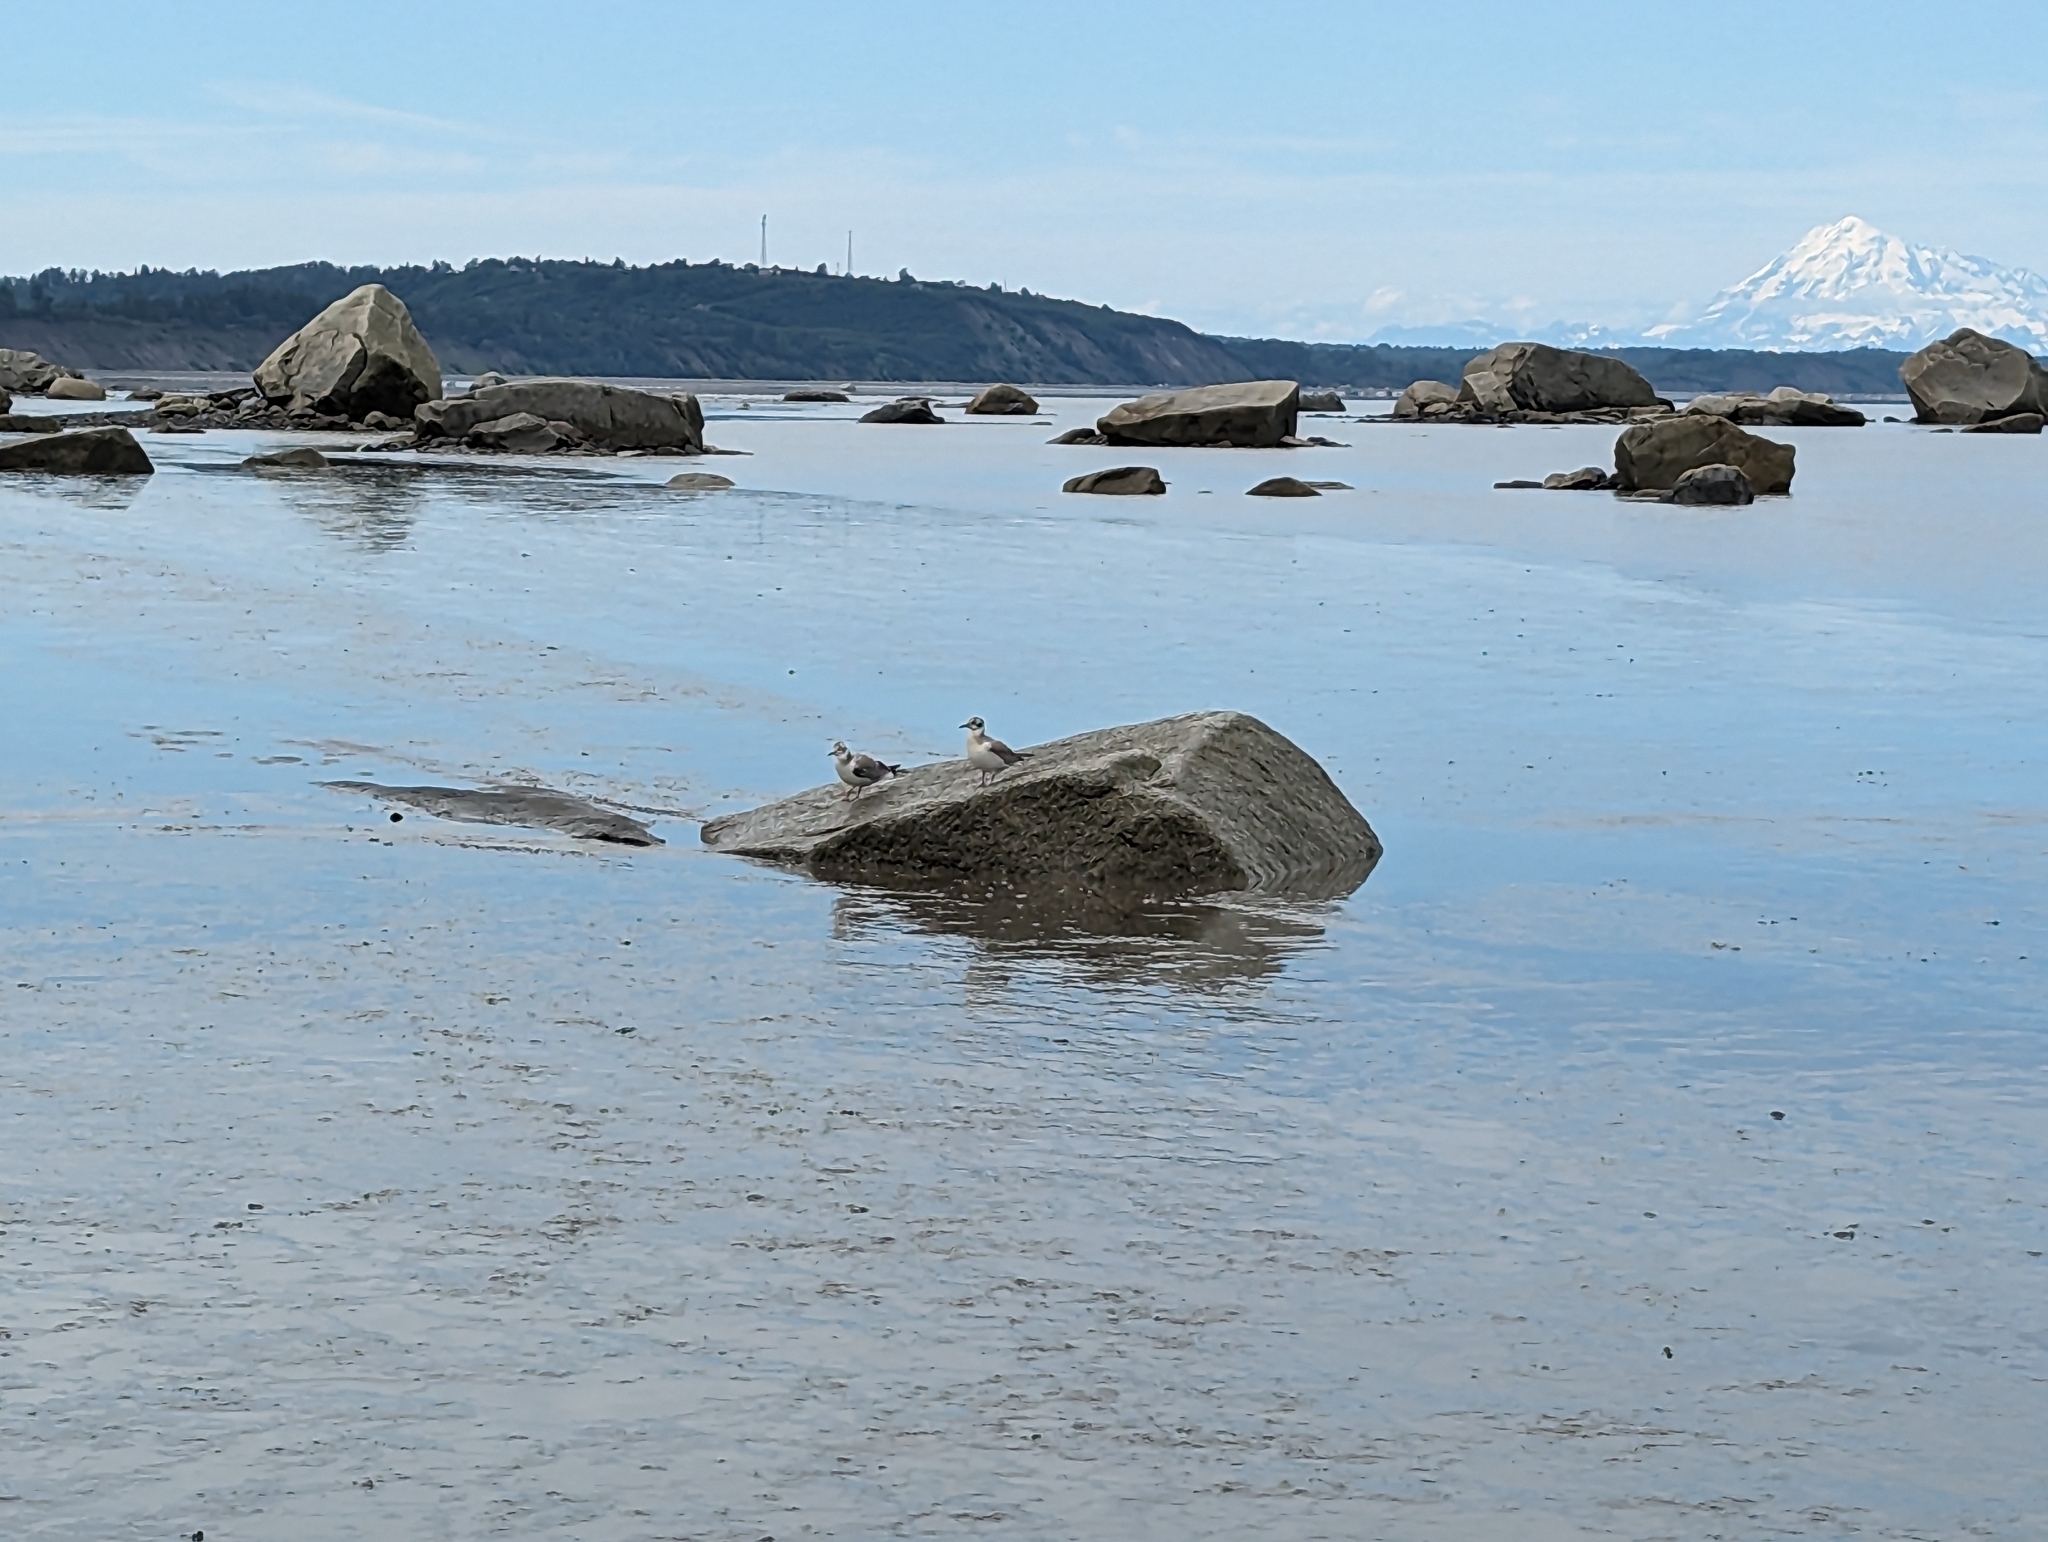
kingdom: Animalia
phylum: Chordata
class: Aves
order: Charadriiformes
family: Laridae
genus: Chroicocephalus
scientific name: Chroicocephalus philadelphia
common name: Bonaparte's gull
